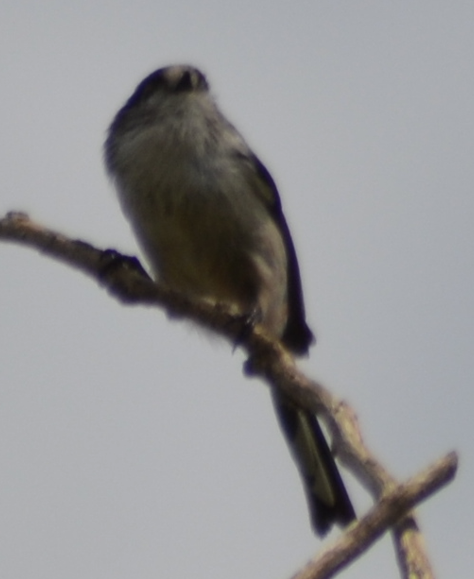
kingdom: Animalia
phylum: Chordata
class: Aves
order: Passeriformes
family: Aegithalidae
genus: Aegithalos
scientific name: Aegithalos caudatus
